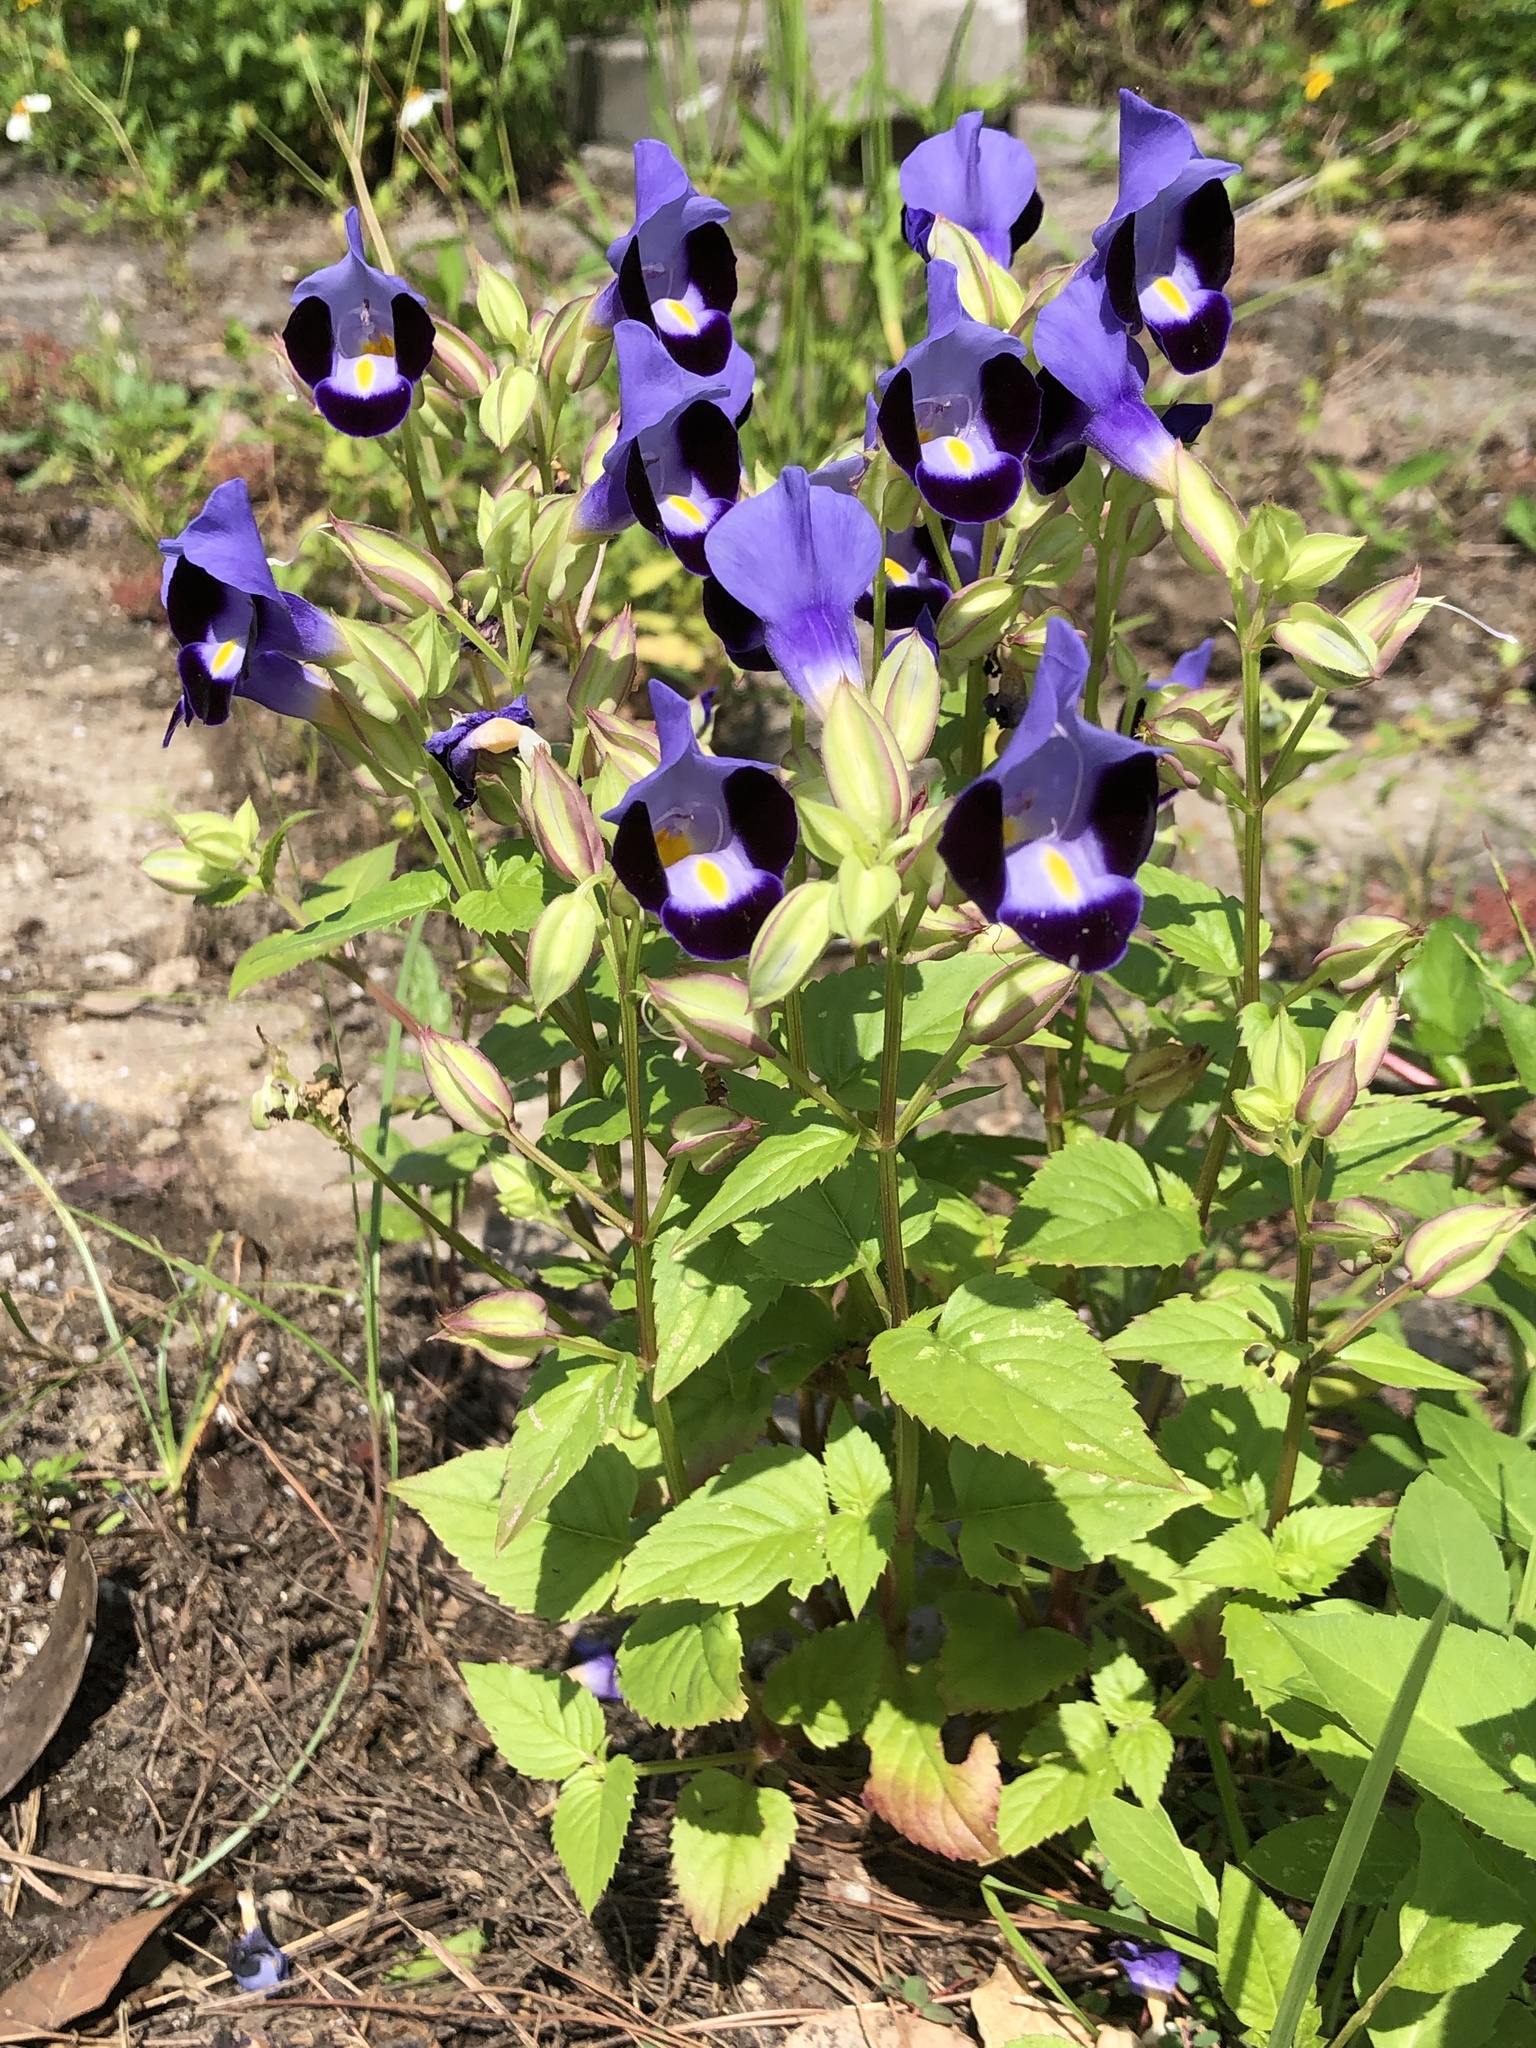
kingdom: Plantae
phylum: Tracheophyta
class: Magnoliopsida
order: Lamiales
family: Linderniaceae
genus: Torenia
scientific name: Torenia fournieri
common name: Bluewings
